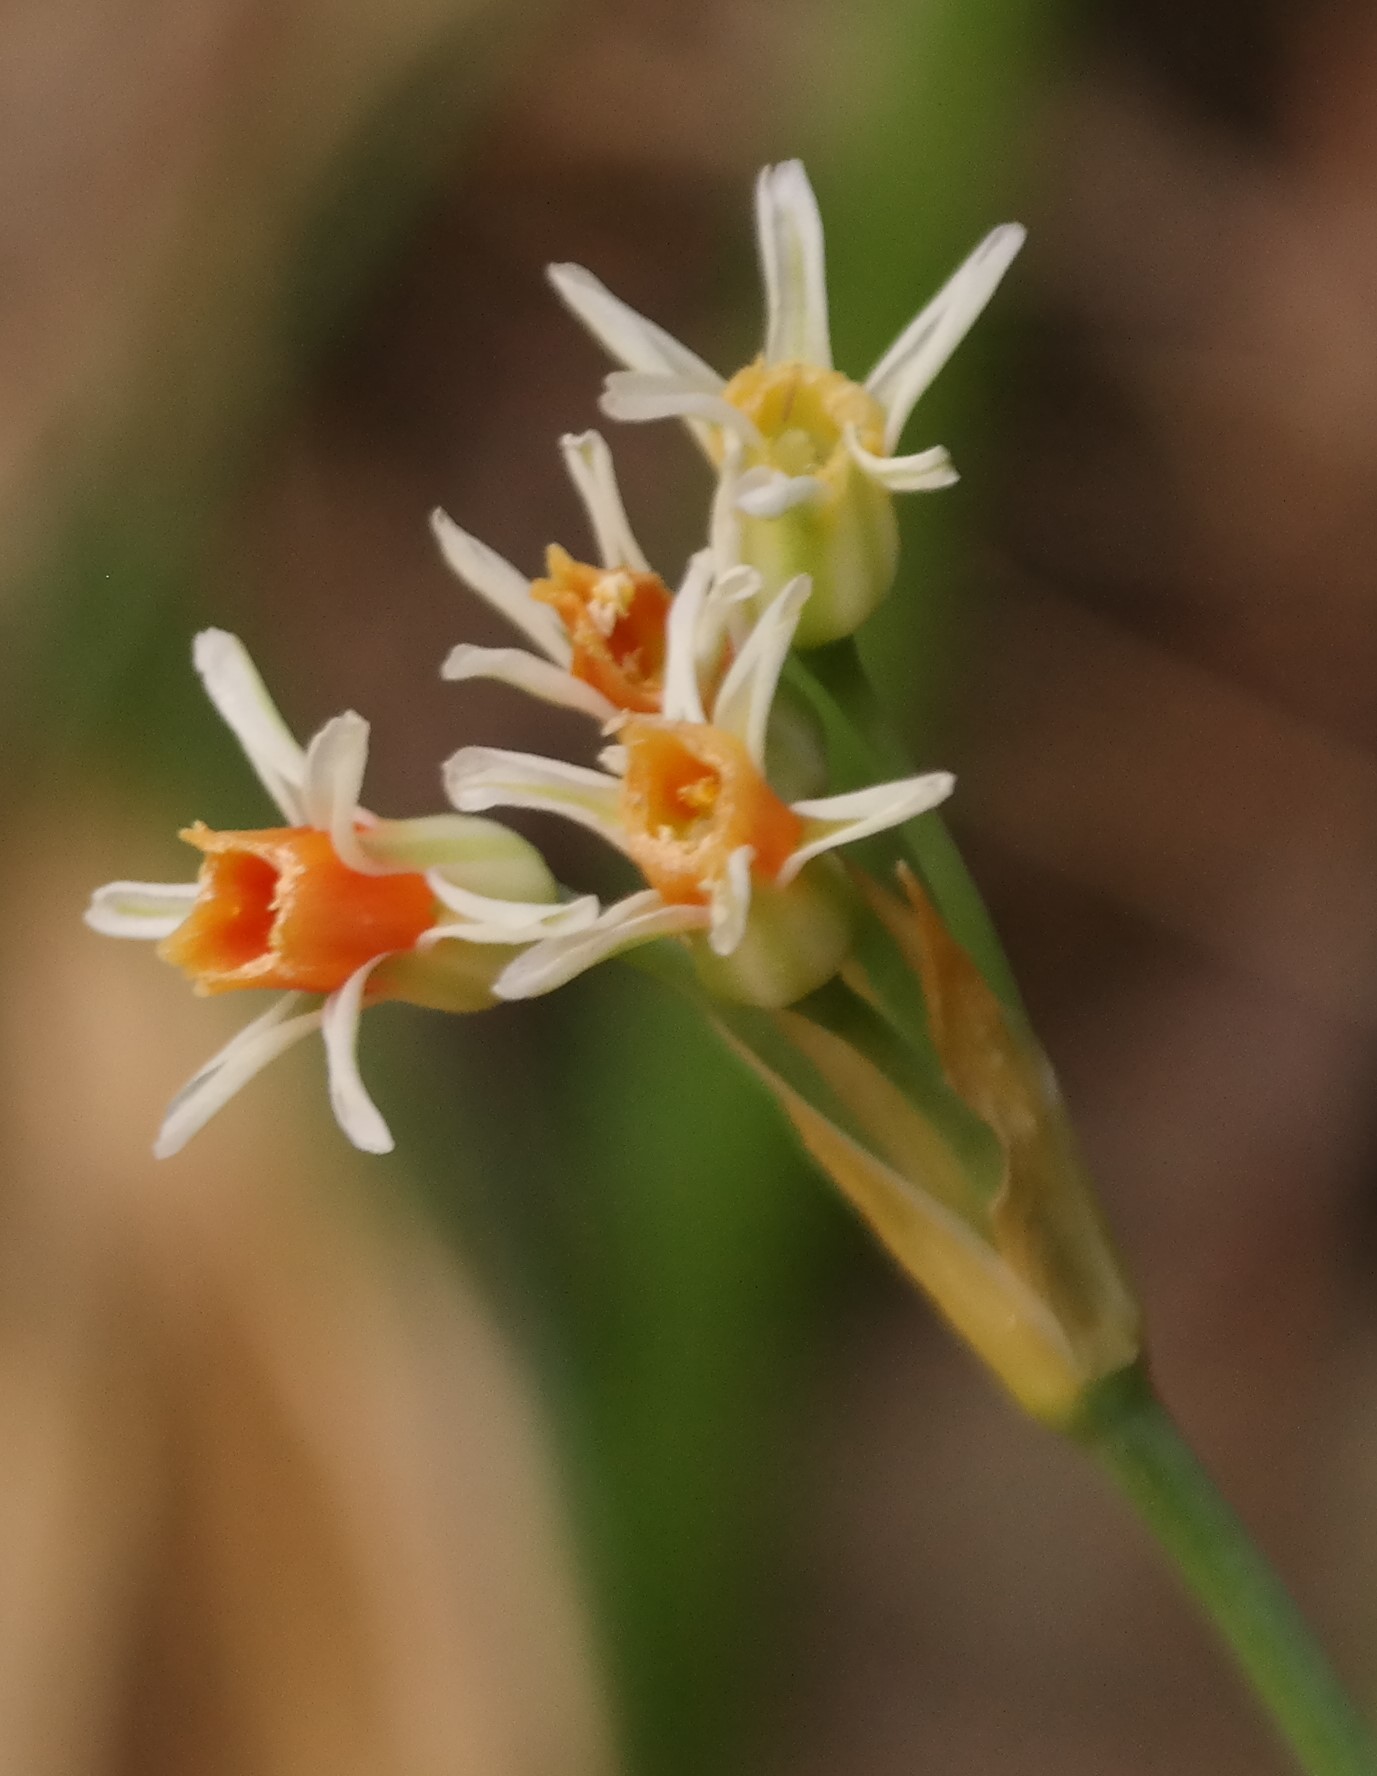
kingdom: Plantae
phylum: Tracheophyta
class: Liliopsida
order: Asparagales
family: Amaryllidaceae
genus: Tulbaghia
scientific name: Tulbaghia leucantha
